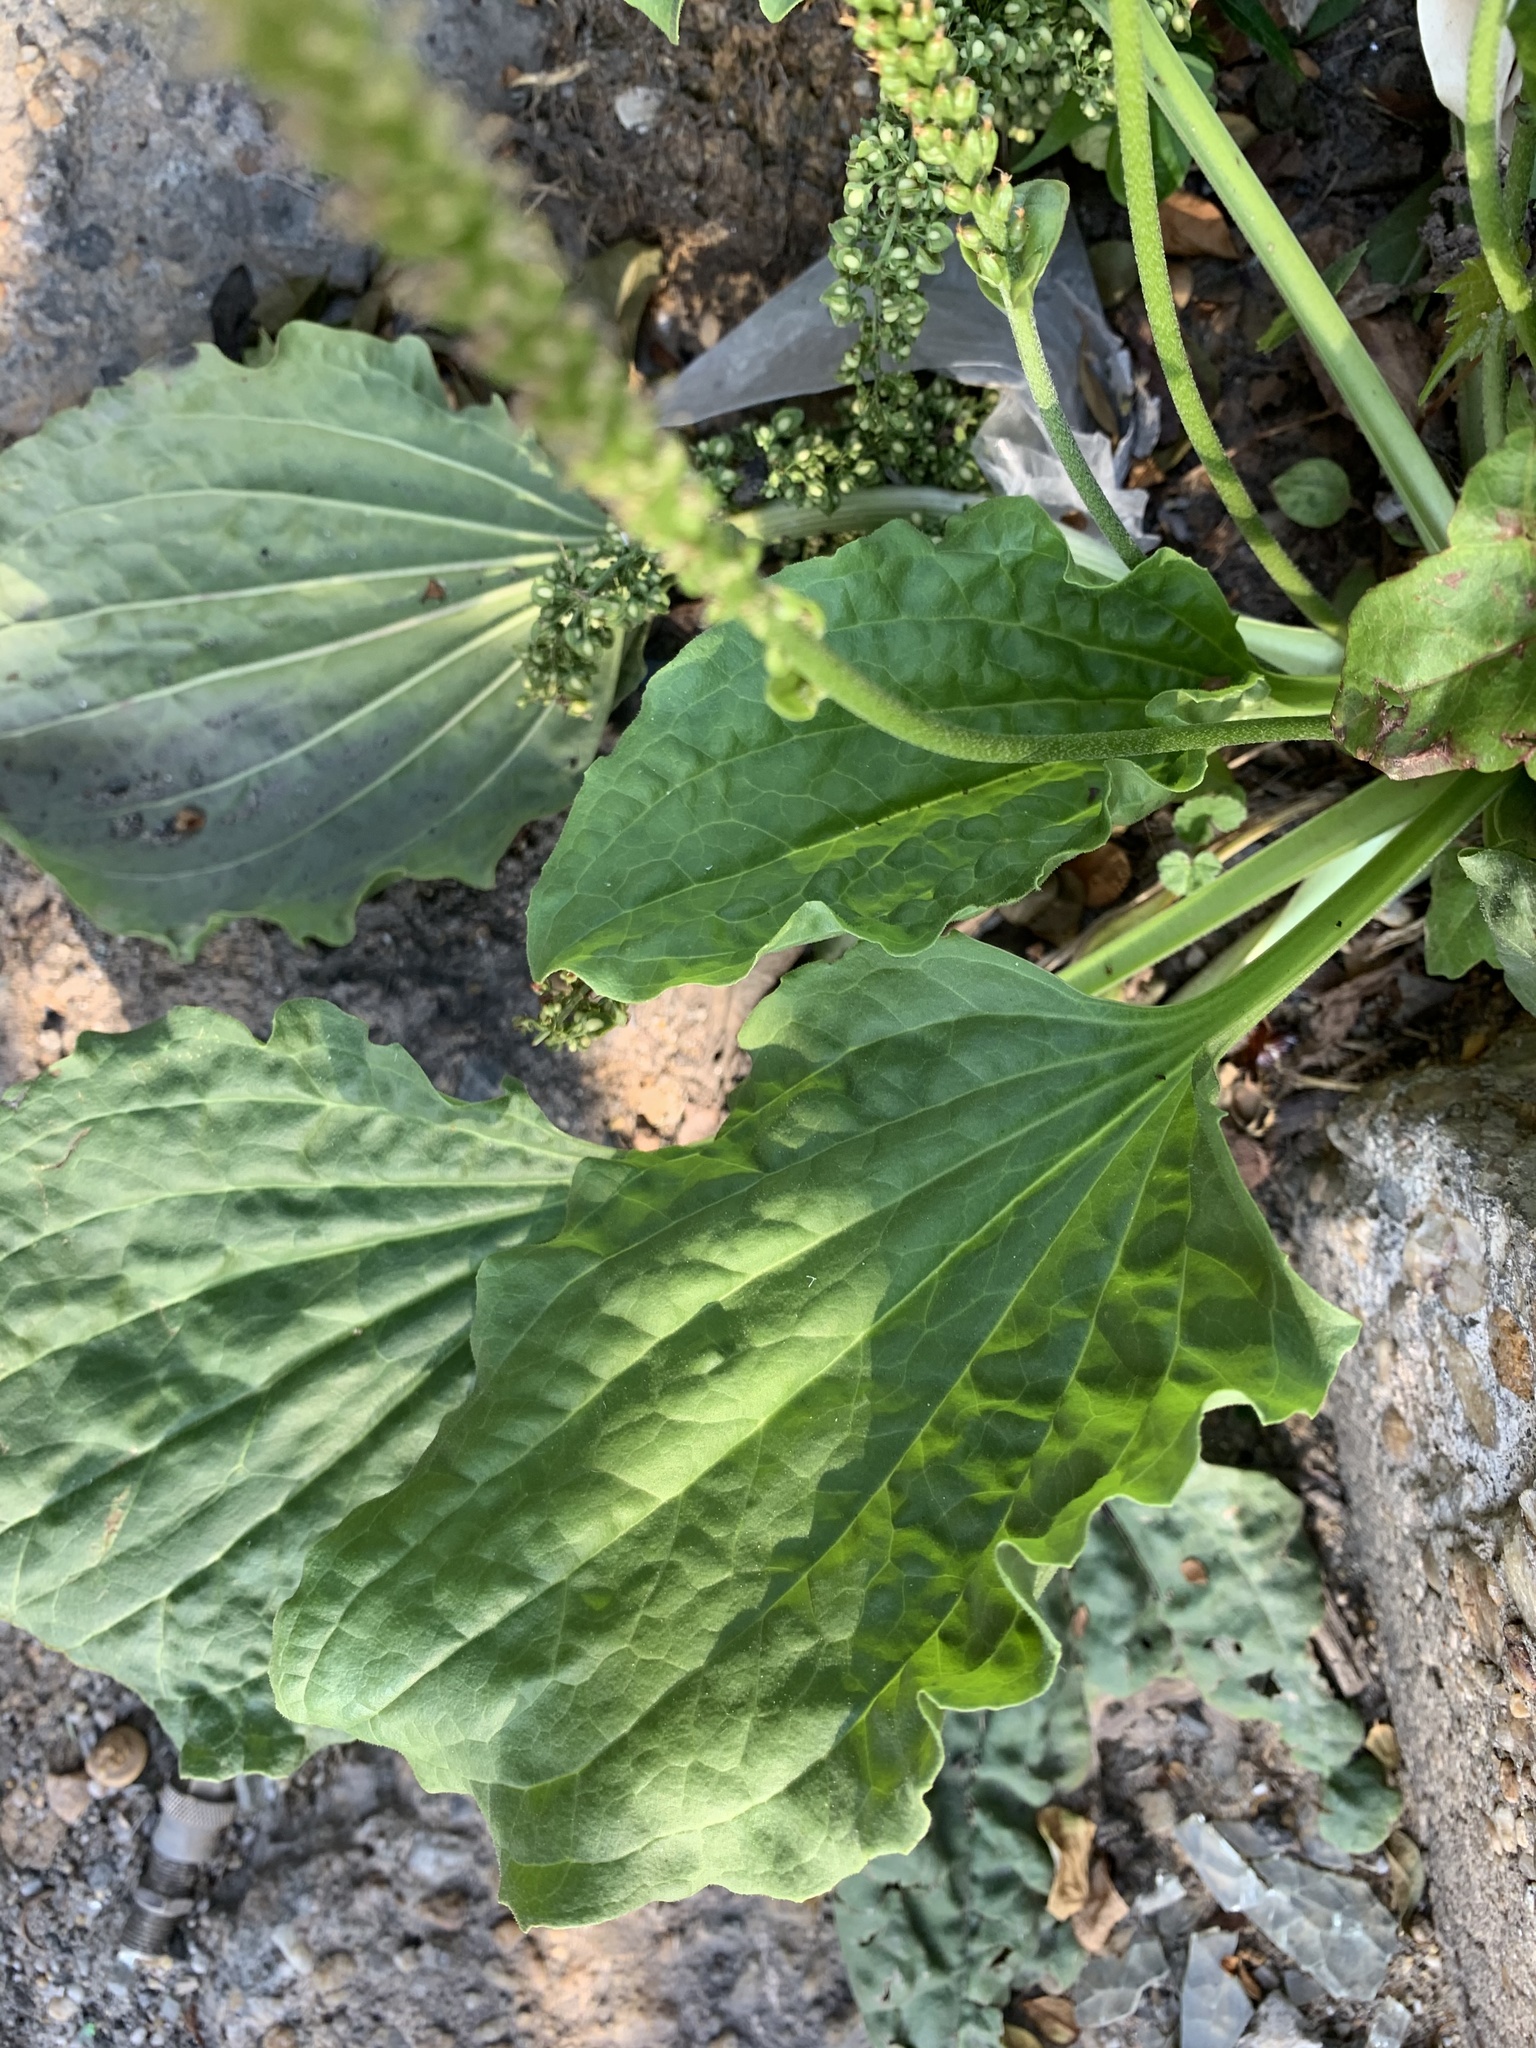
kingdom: Plantae
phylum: Tracheophyta
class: Magnoliopsida
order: Lamiales
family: Plantaginaceae
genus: Plantago
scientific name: Plantago major
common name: Common plantain
